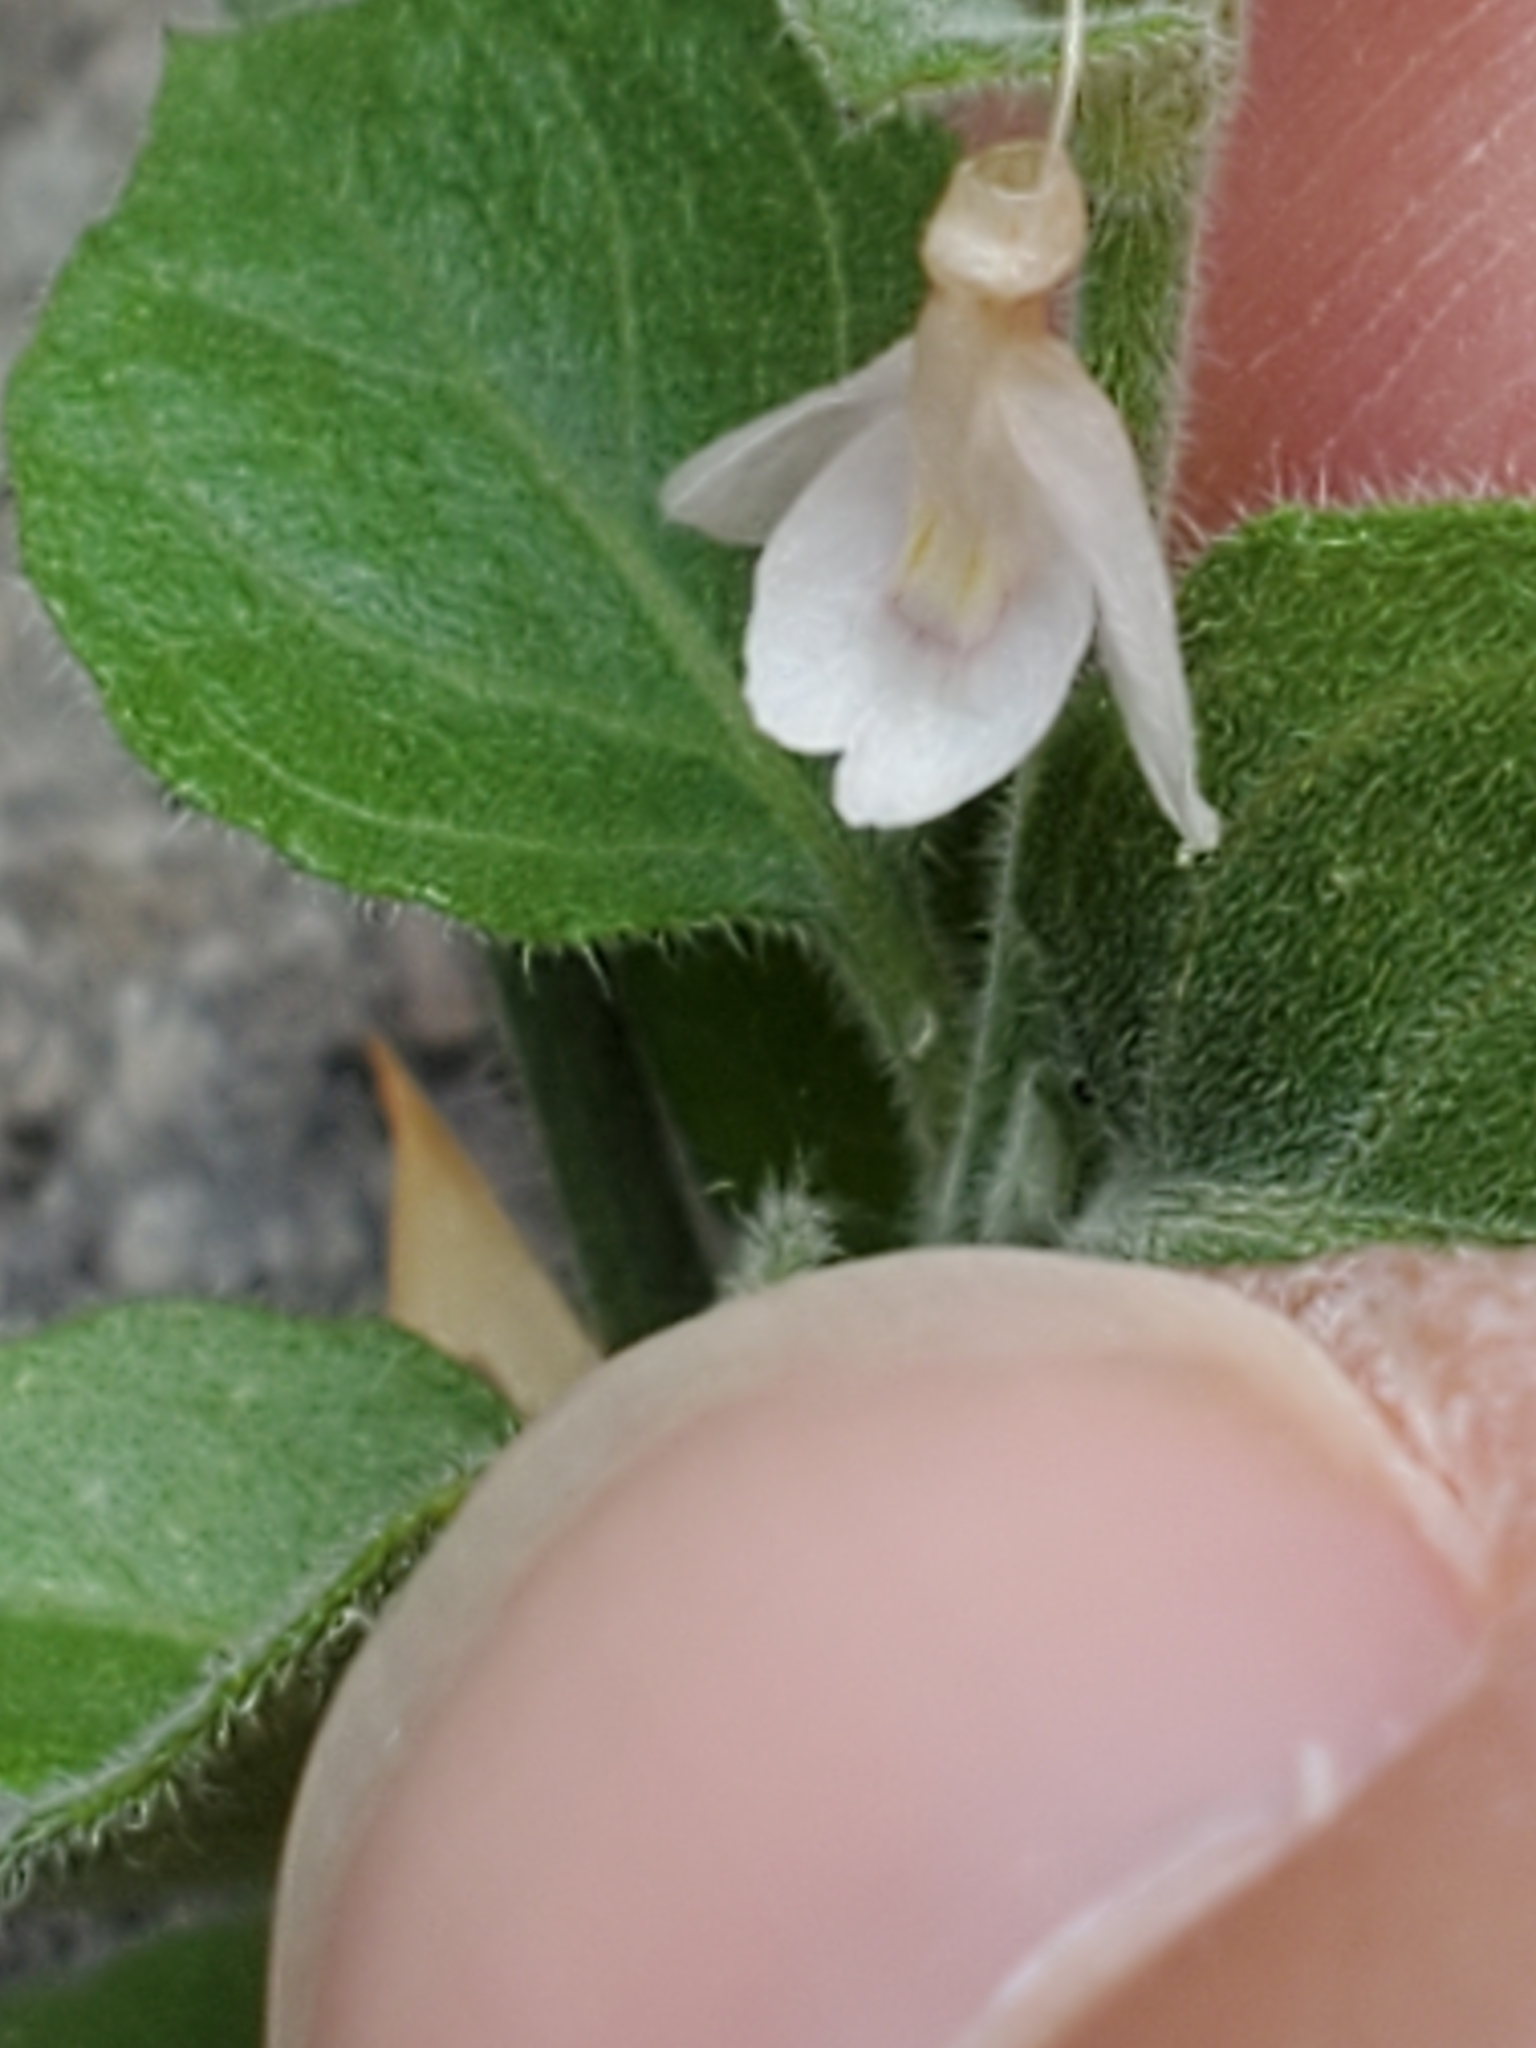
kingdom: Plantae
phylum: Tracheophyta
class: Magnoliopsida
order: Lamiales
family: Acanthaceae
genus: Carlowrightia
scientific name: Carlowrightia torreyana
